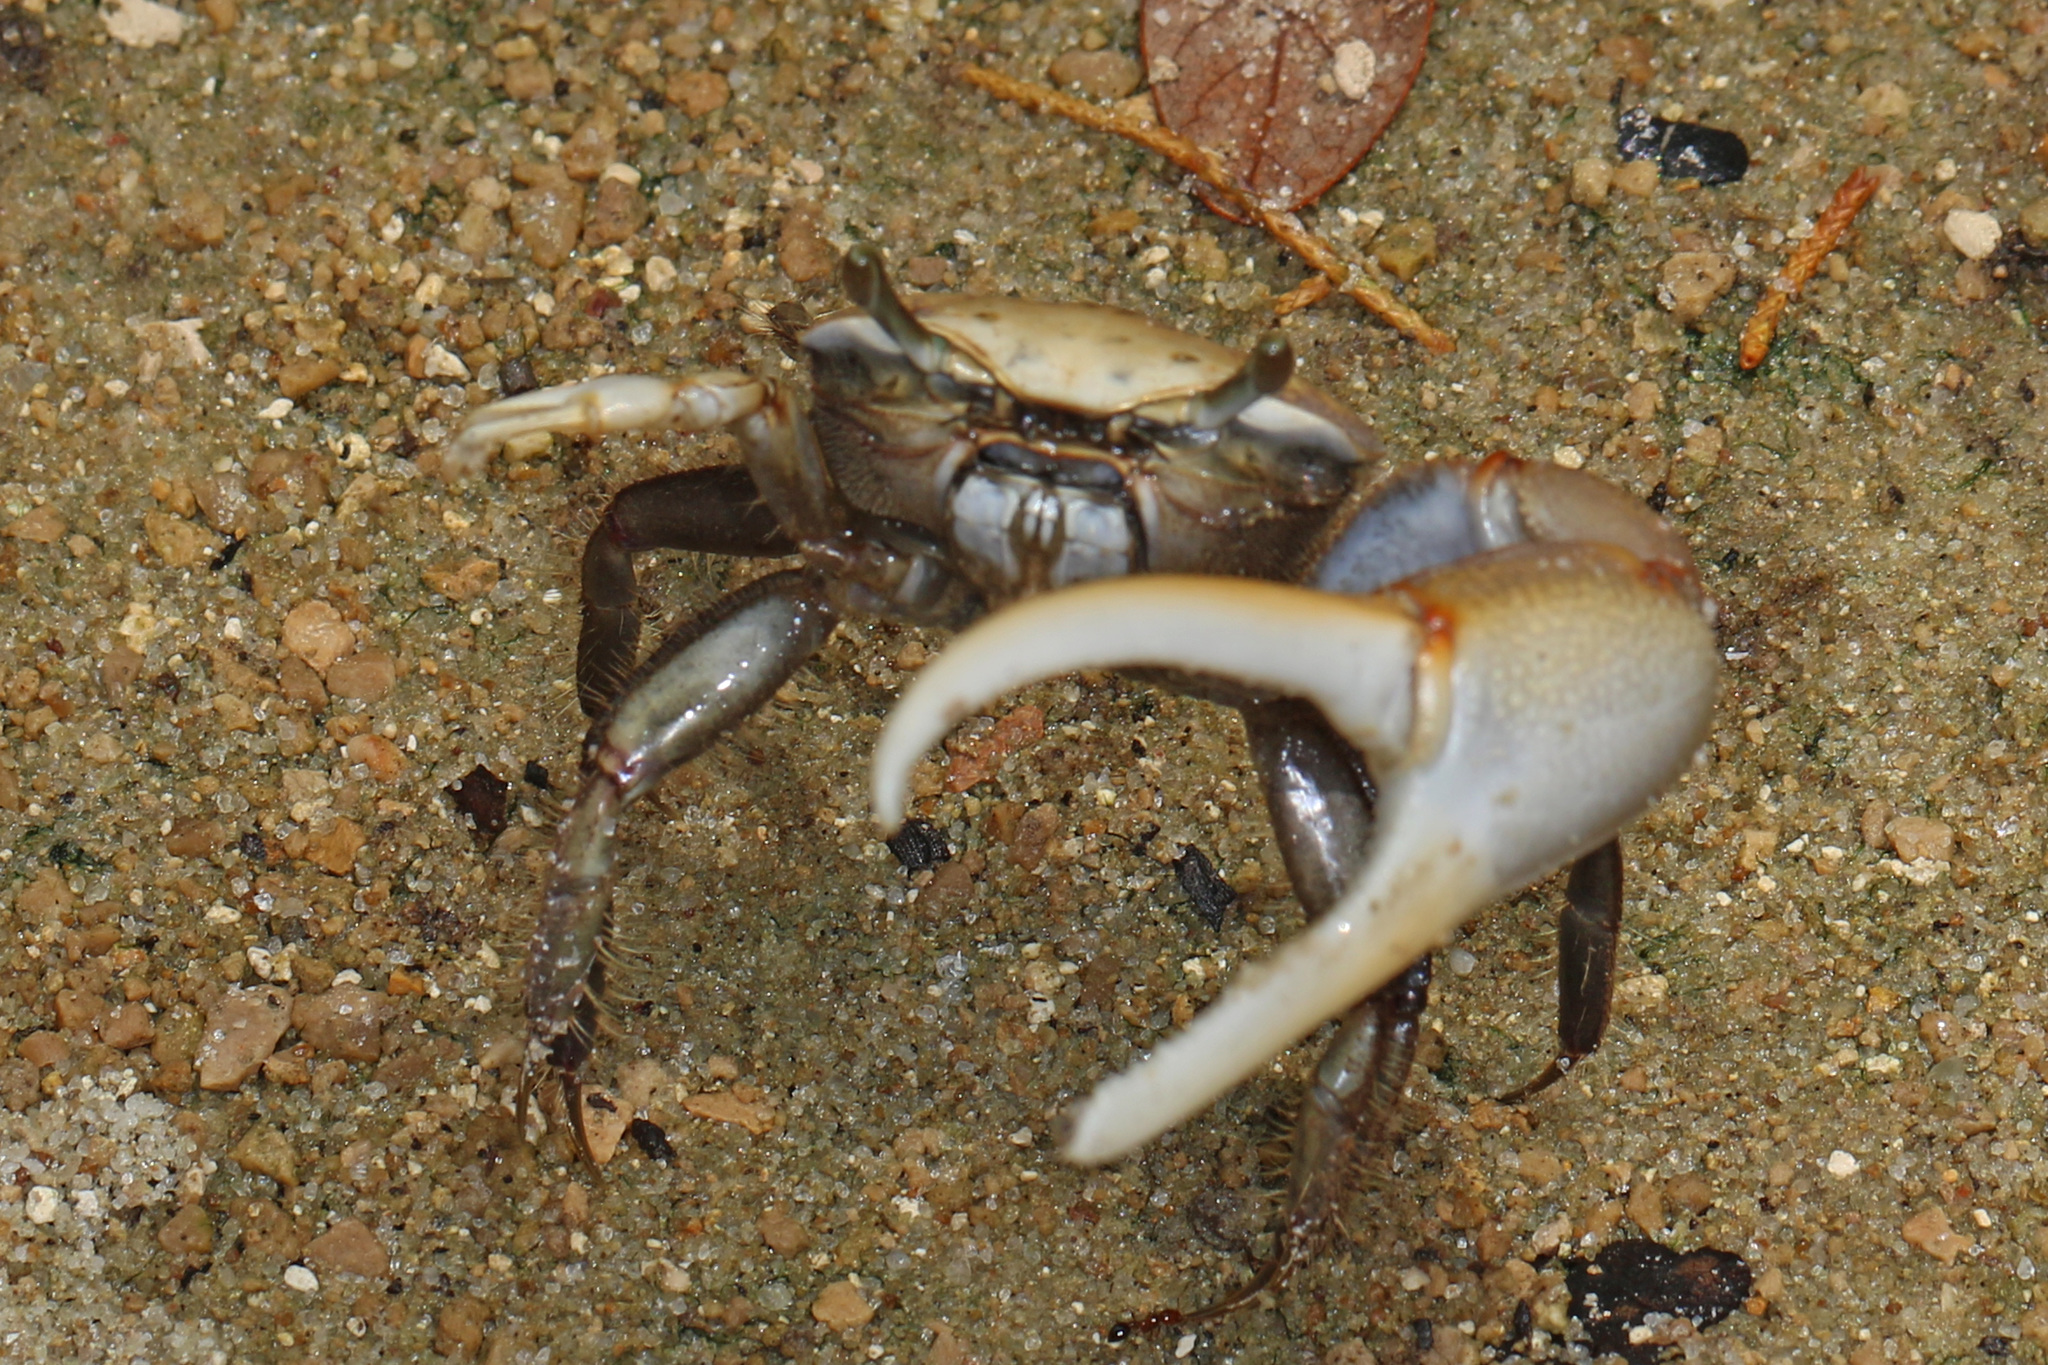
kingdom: Animalia
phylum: Arthropoda
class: Malacostraca
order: Decapoda
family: Ocypodidae
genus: Minuca
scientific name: Minuca minax
